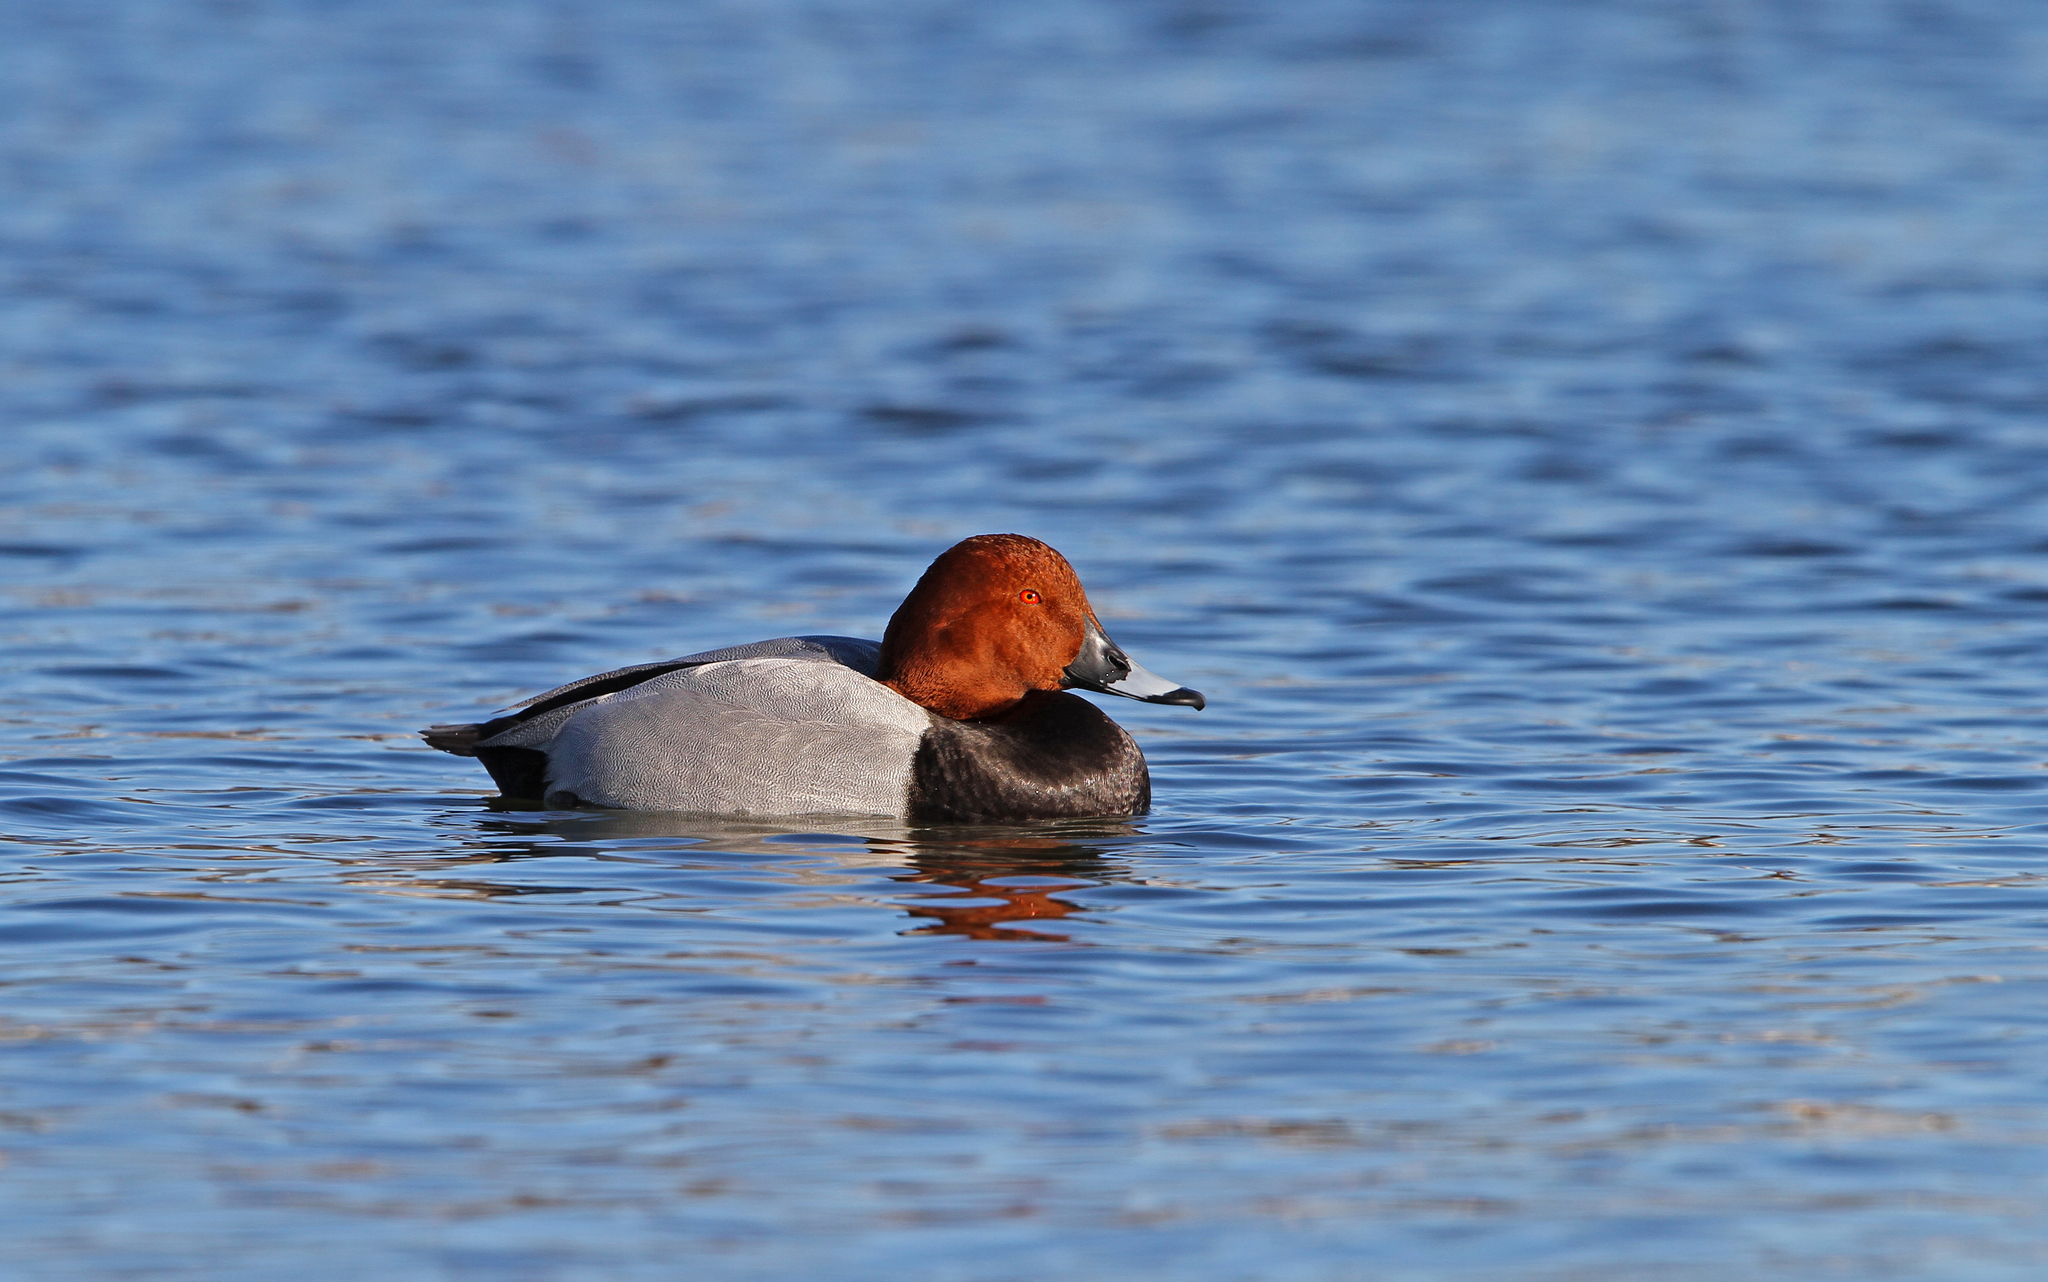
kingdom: Animalia
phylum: Chordata
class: Aves
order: Anseriformes
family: Anatidae
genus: Aythya
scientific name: Aythya ferina
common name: Common pochard
